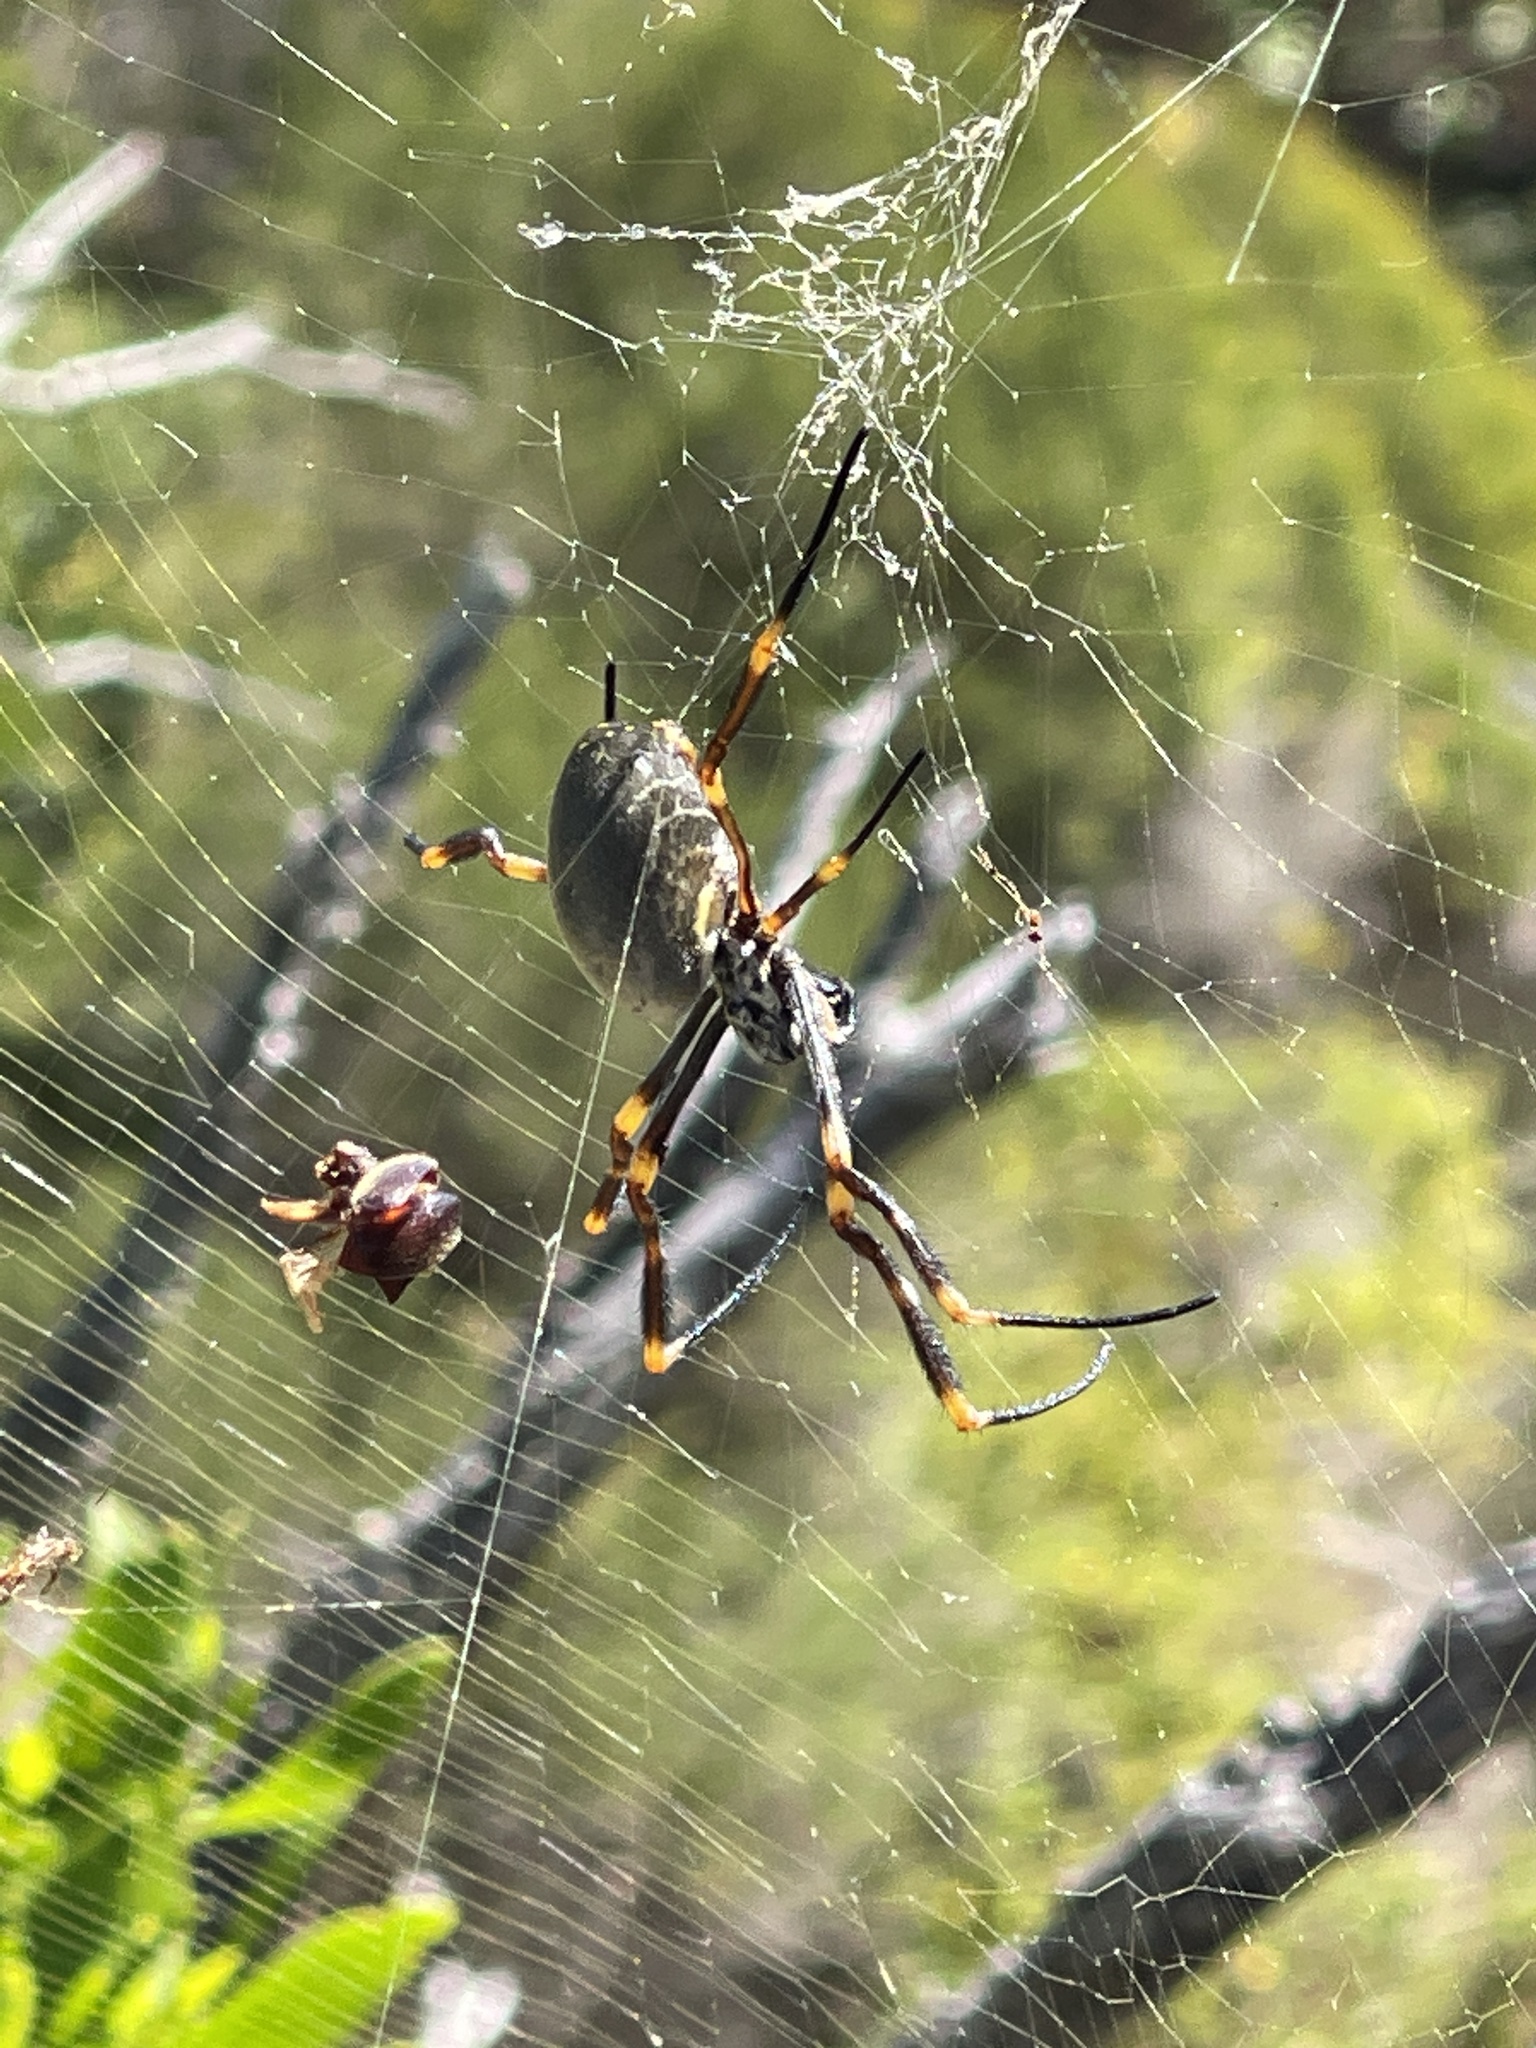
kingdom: Animalia
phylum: Arthropoda
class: Arachnida
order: Araneae
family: Araneidae
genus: Trichonephila
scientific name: Trichonephila plumipes
